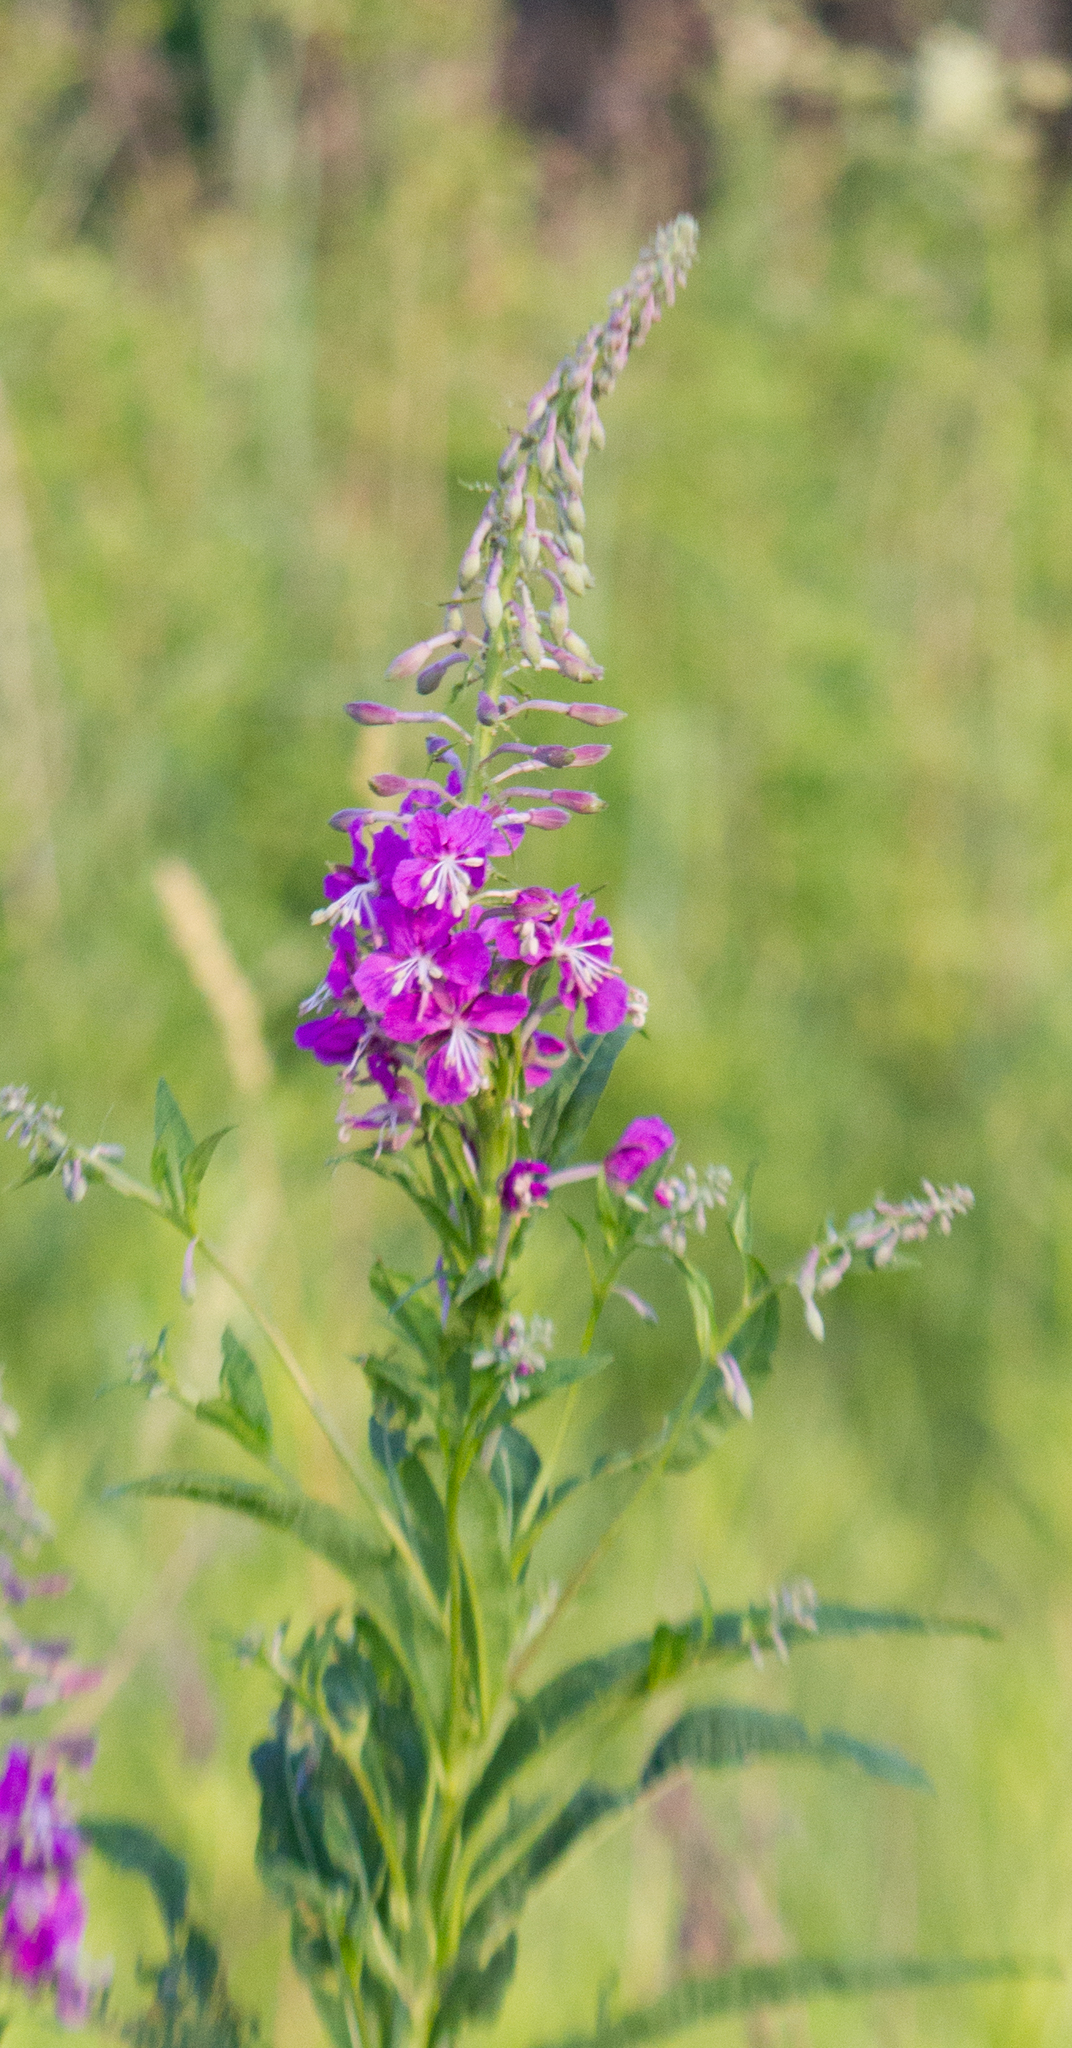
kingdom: Plantae
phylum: Tracheophyta
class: Magnoliopsida
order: Myrtales
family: Onagraceae
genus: Chamaenerion
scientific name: Chamaenerion angustifolium
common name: Fireweed
